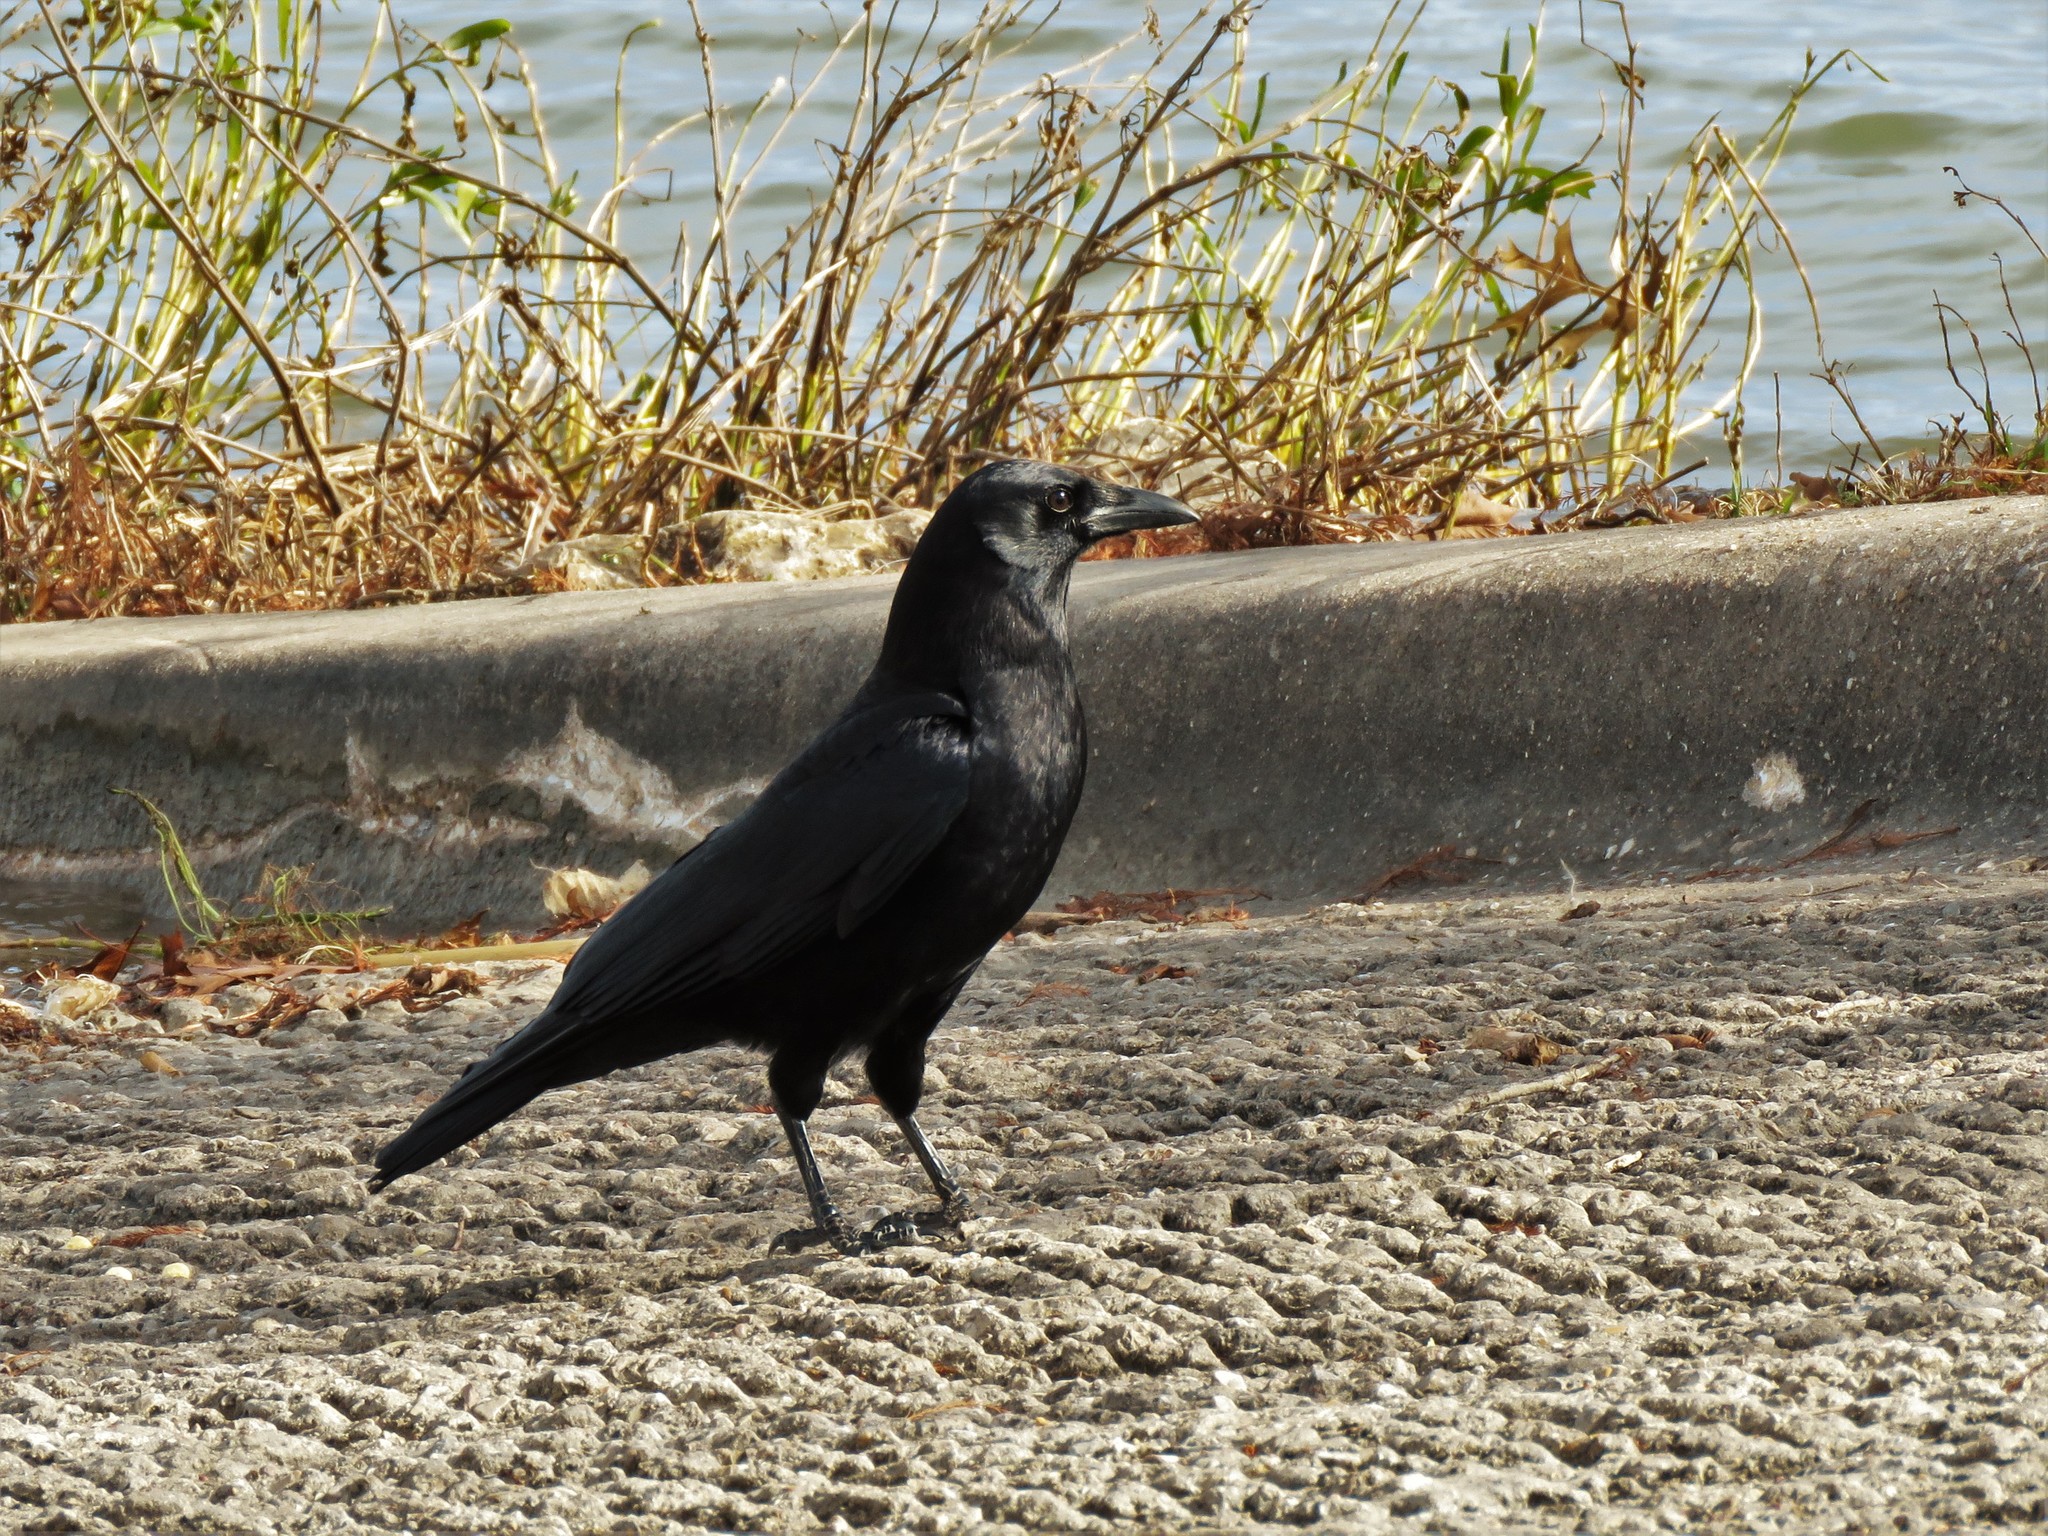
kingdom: Animalia
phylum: Chordata
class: Aves
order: Passeriformes
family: Corvidae
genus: Corvus
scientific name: Corvus brachyrhynchos
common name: American crow
